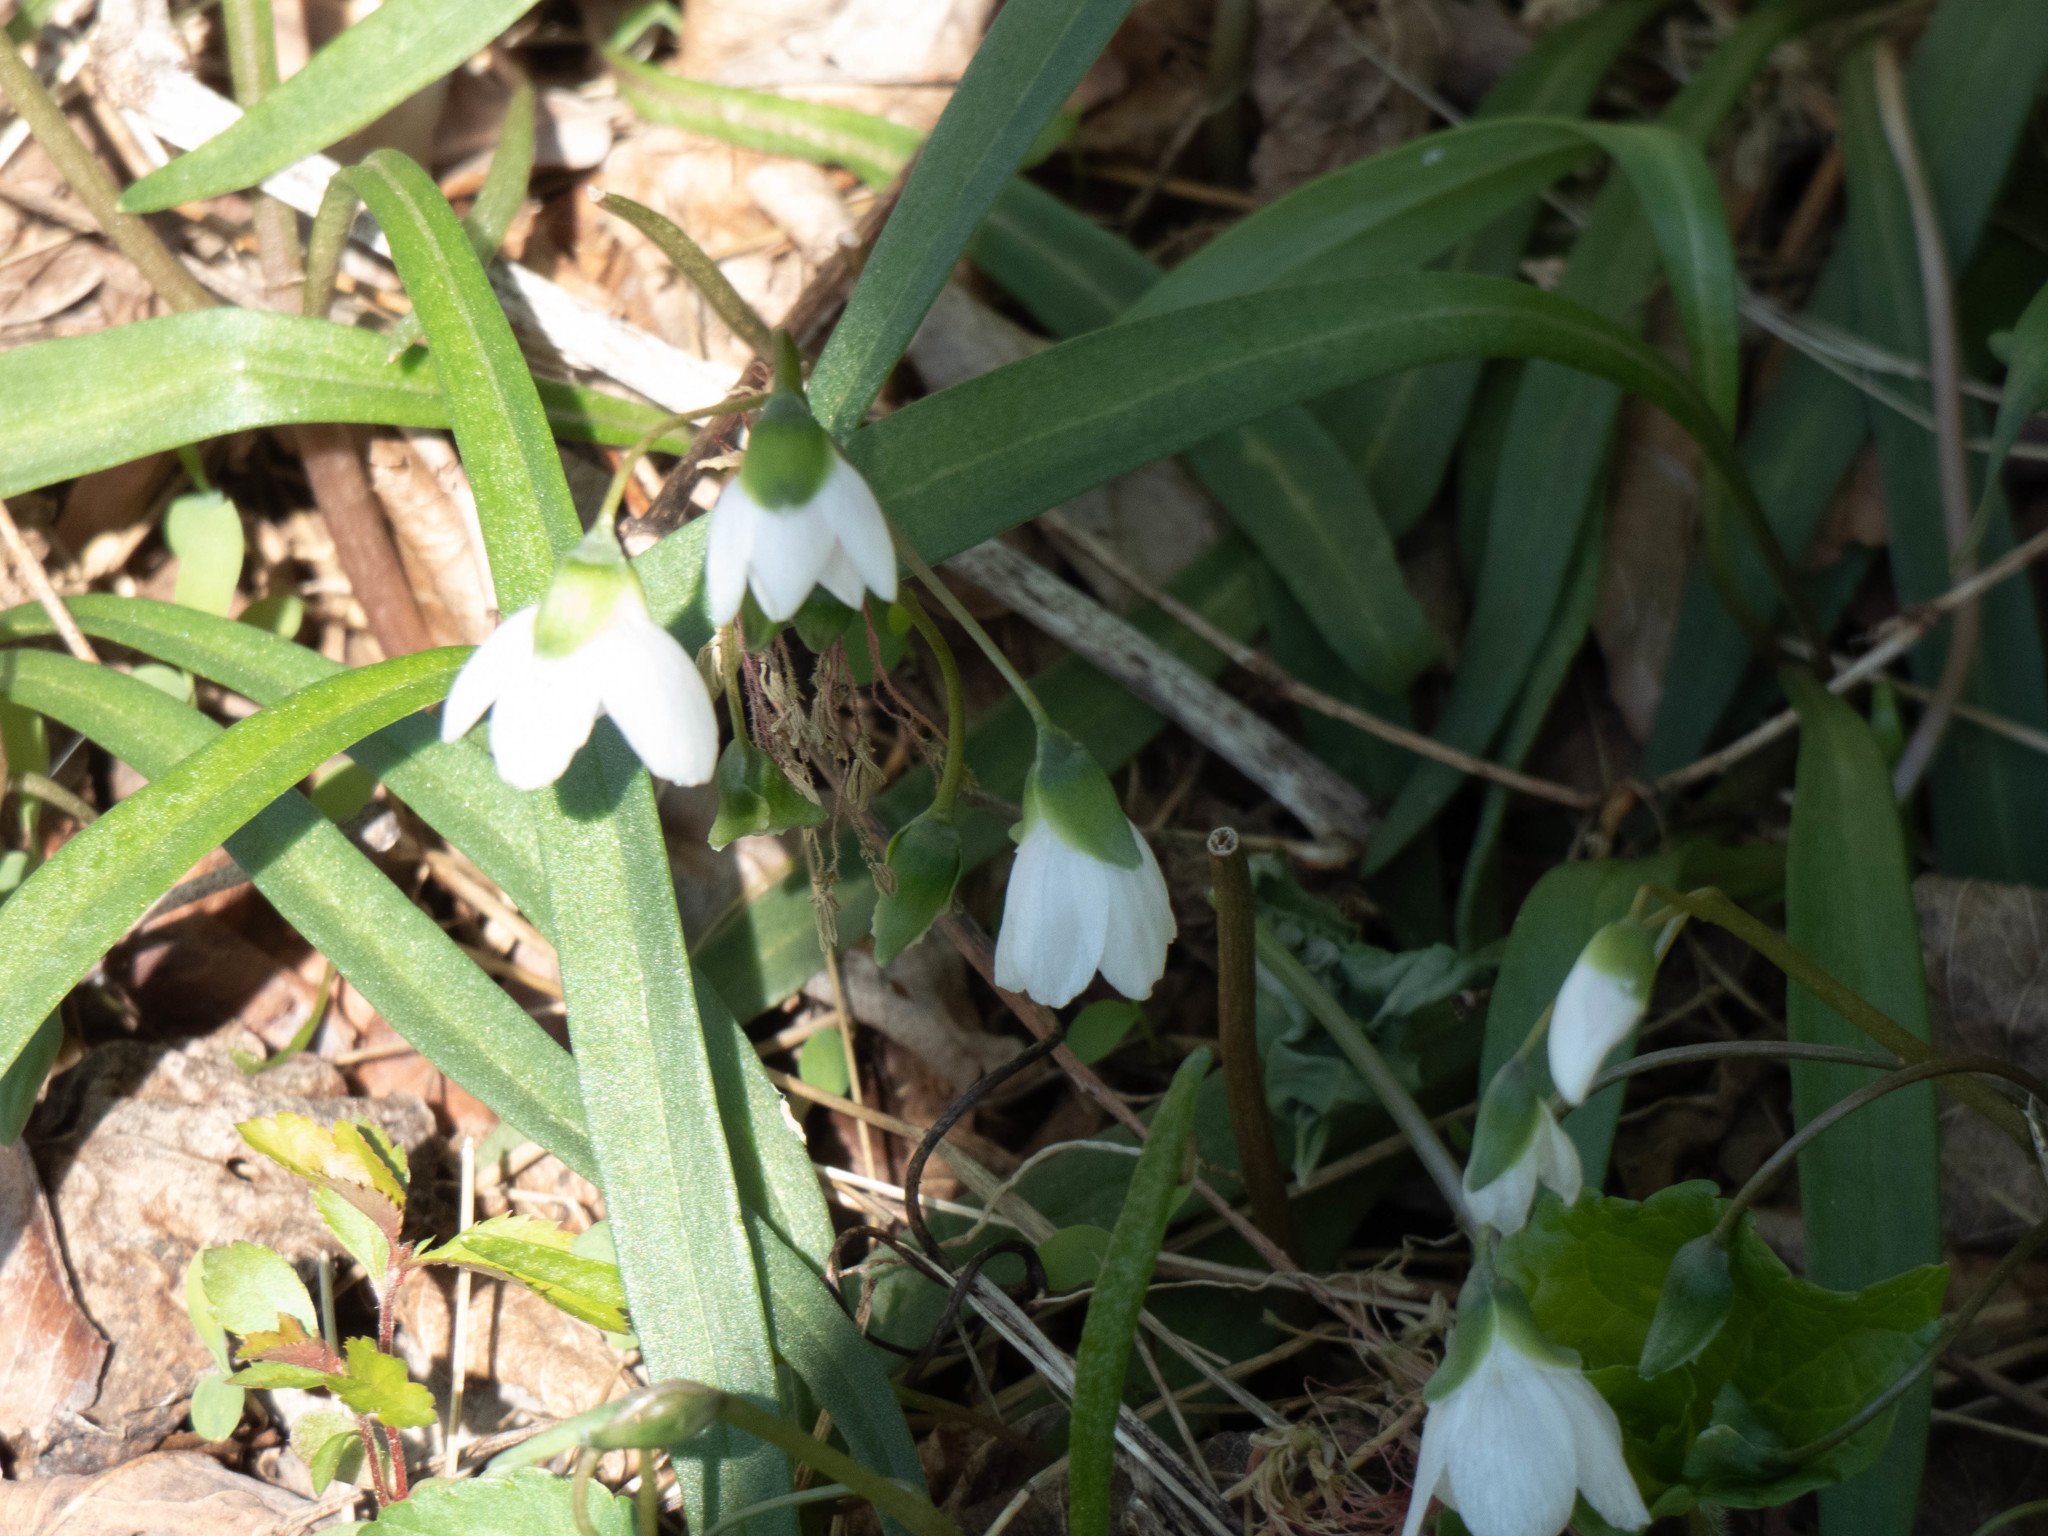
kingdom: Plantae
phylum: Tracheophyta
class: Magnoliopsida
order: Caryophyllales
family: Montiaceae
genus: Claytonia
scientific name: Claytonia virginica
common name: Virginia springbeauty
